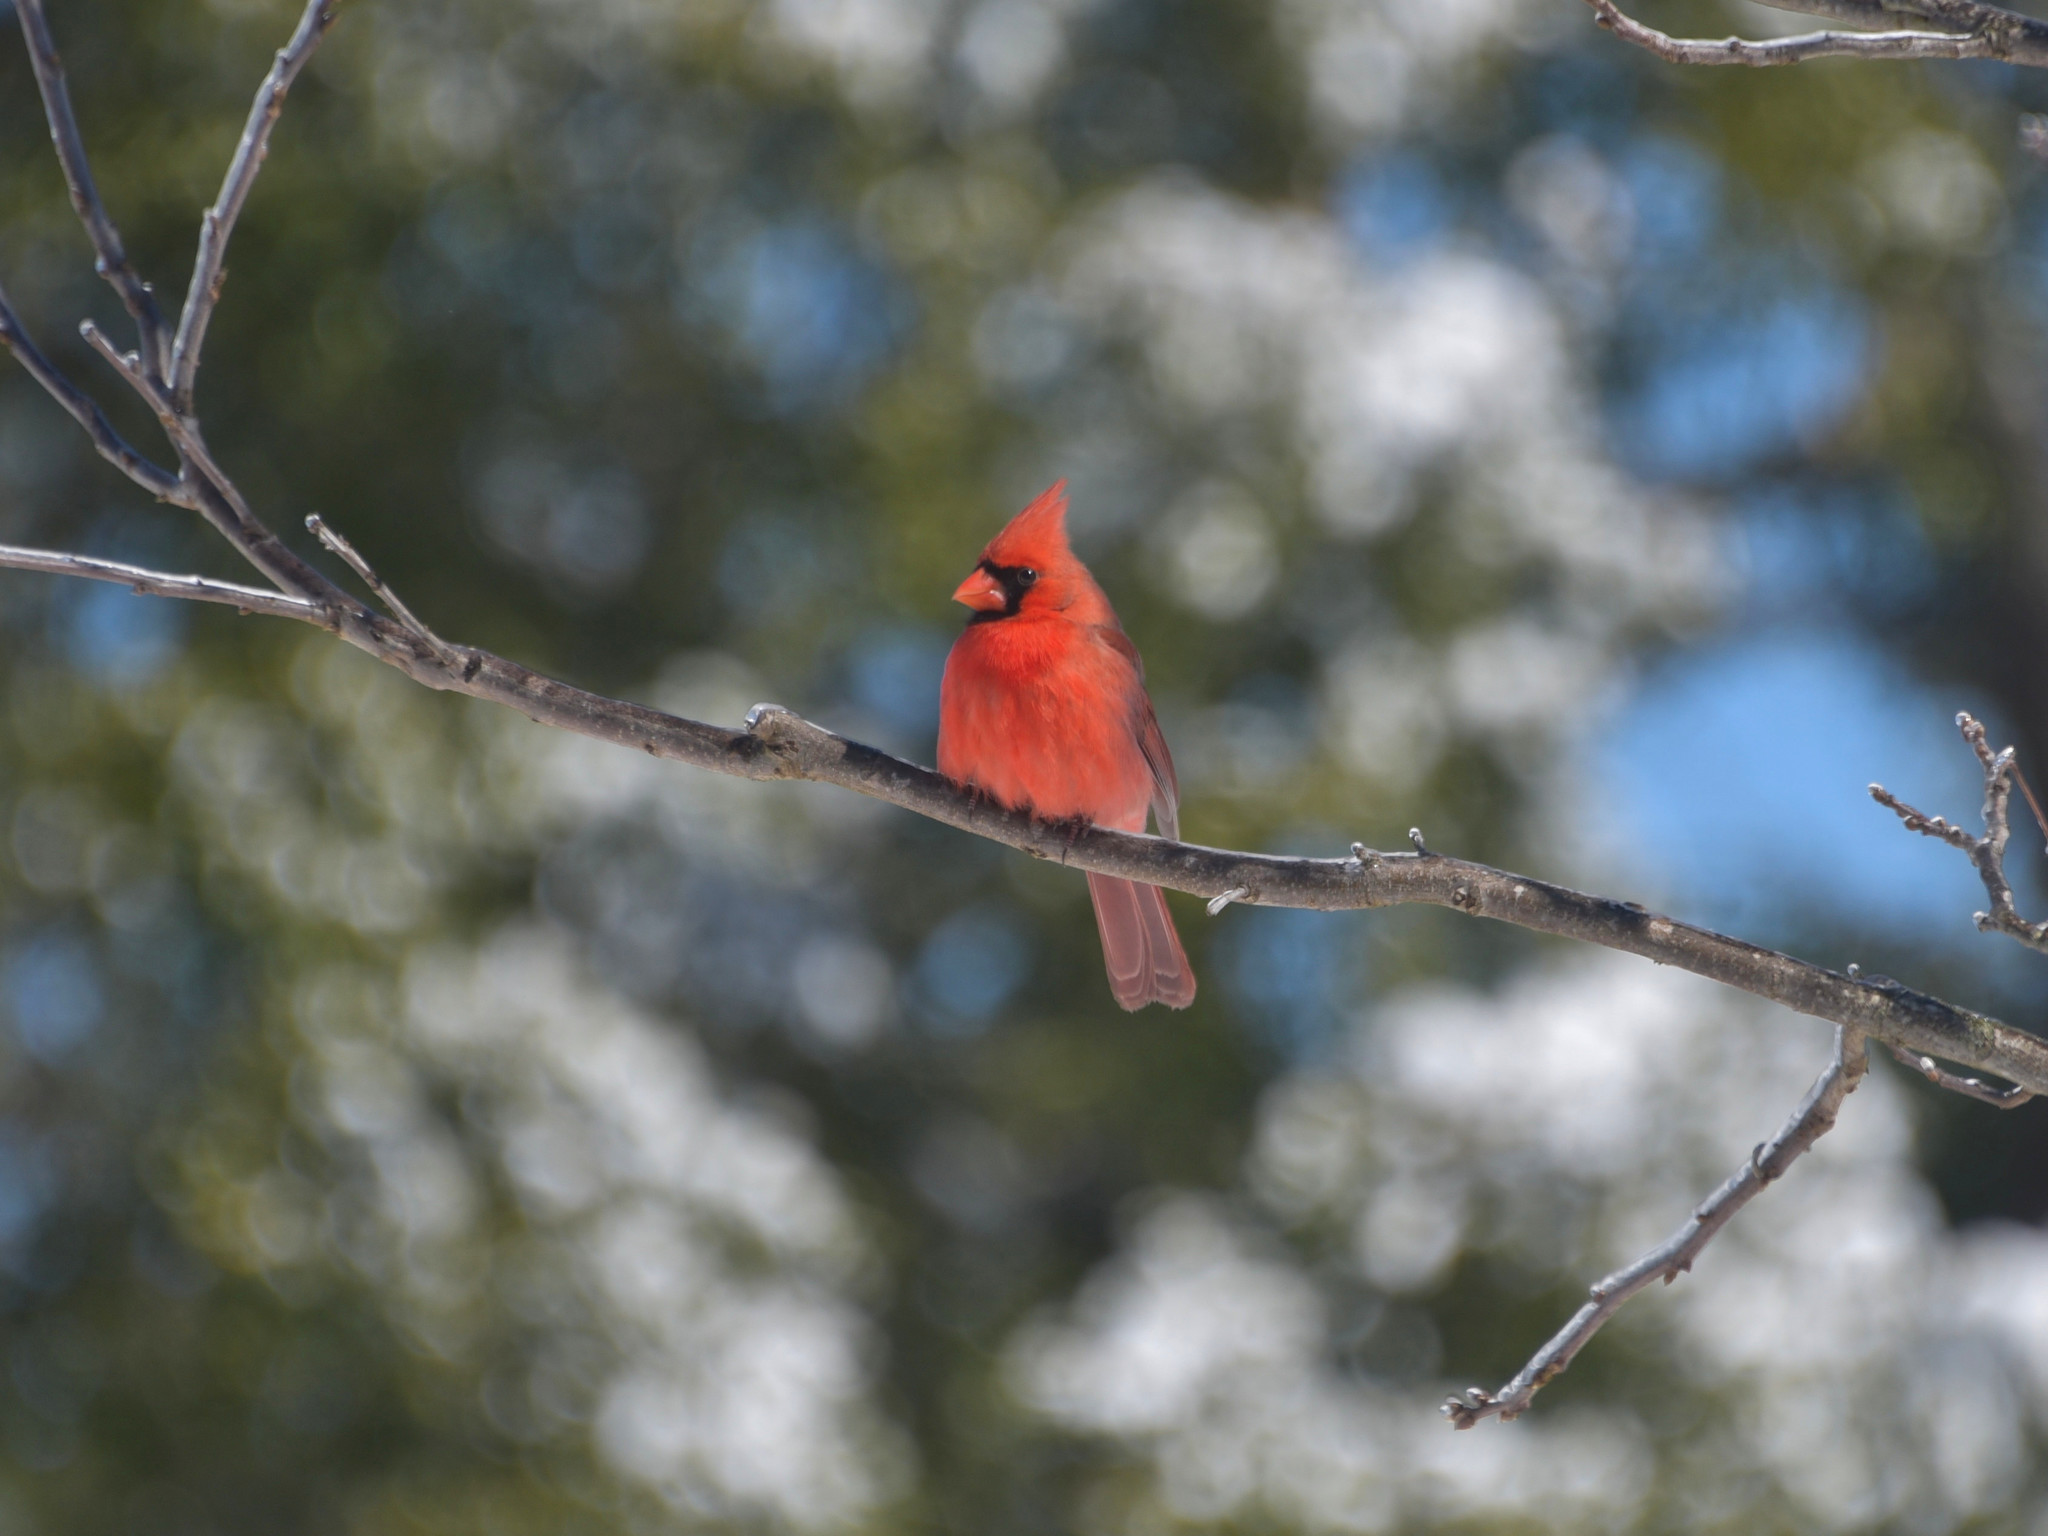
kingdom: Animalia
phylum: Chordata
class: Aves
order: Passeriformes
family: Cardinalidae
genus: Cardinalis
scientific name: Cardinalis cardinalis
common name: Northern cardinal
